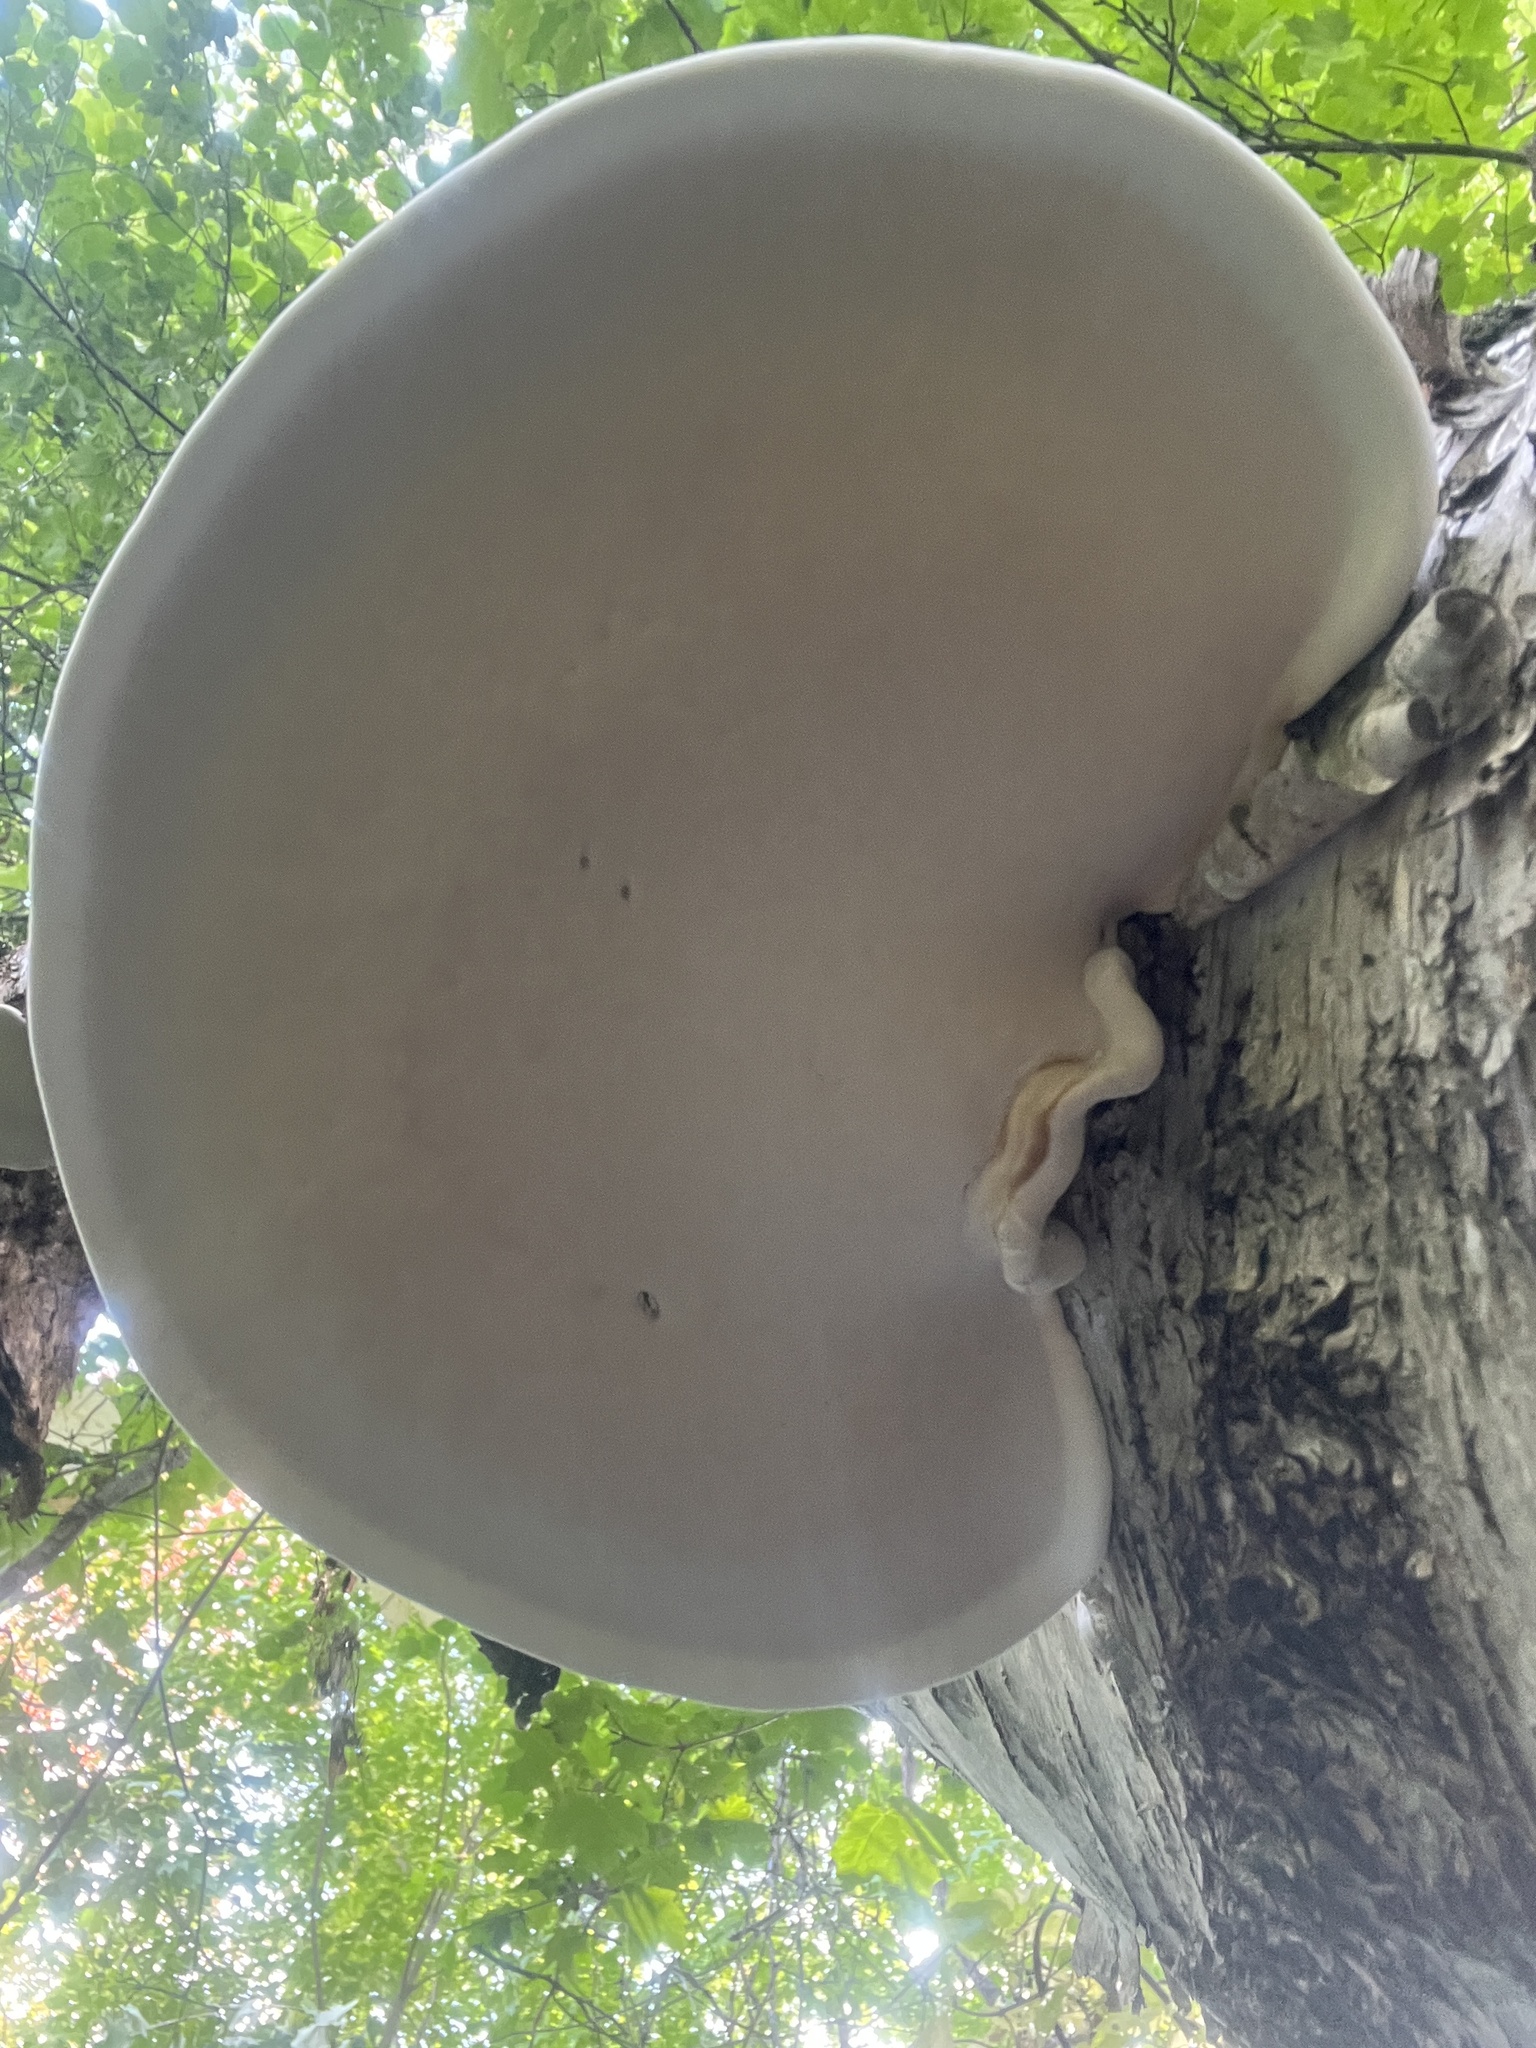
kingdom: Fungi
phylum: Basidiomycota
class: Agaricomycetes
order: Polyporales
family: Fomitopsidaceae
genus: Fomitopsis
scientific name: Fomitopsis betulina
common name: Birch polypore
